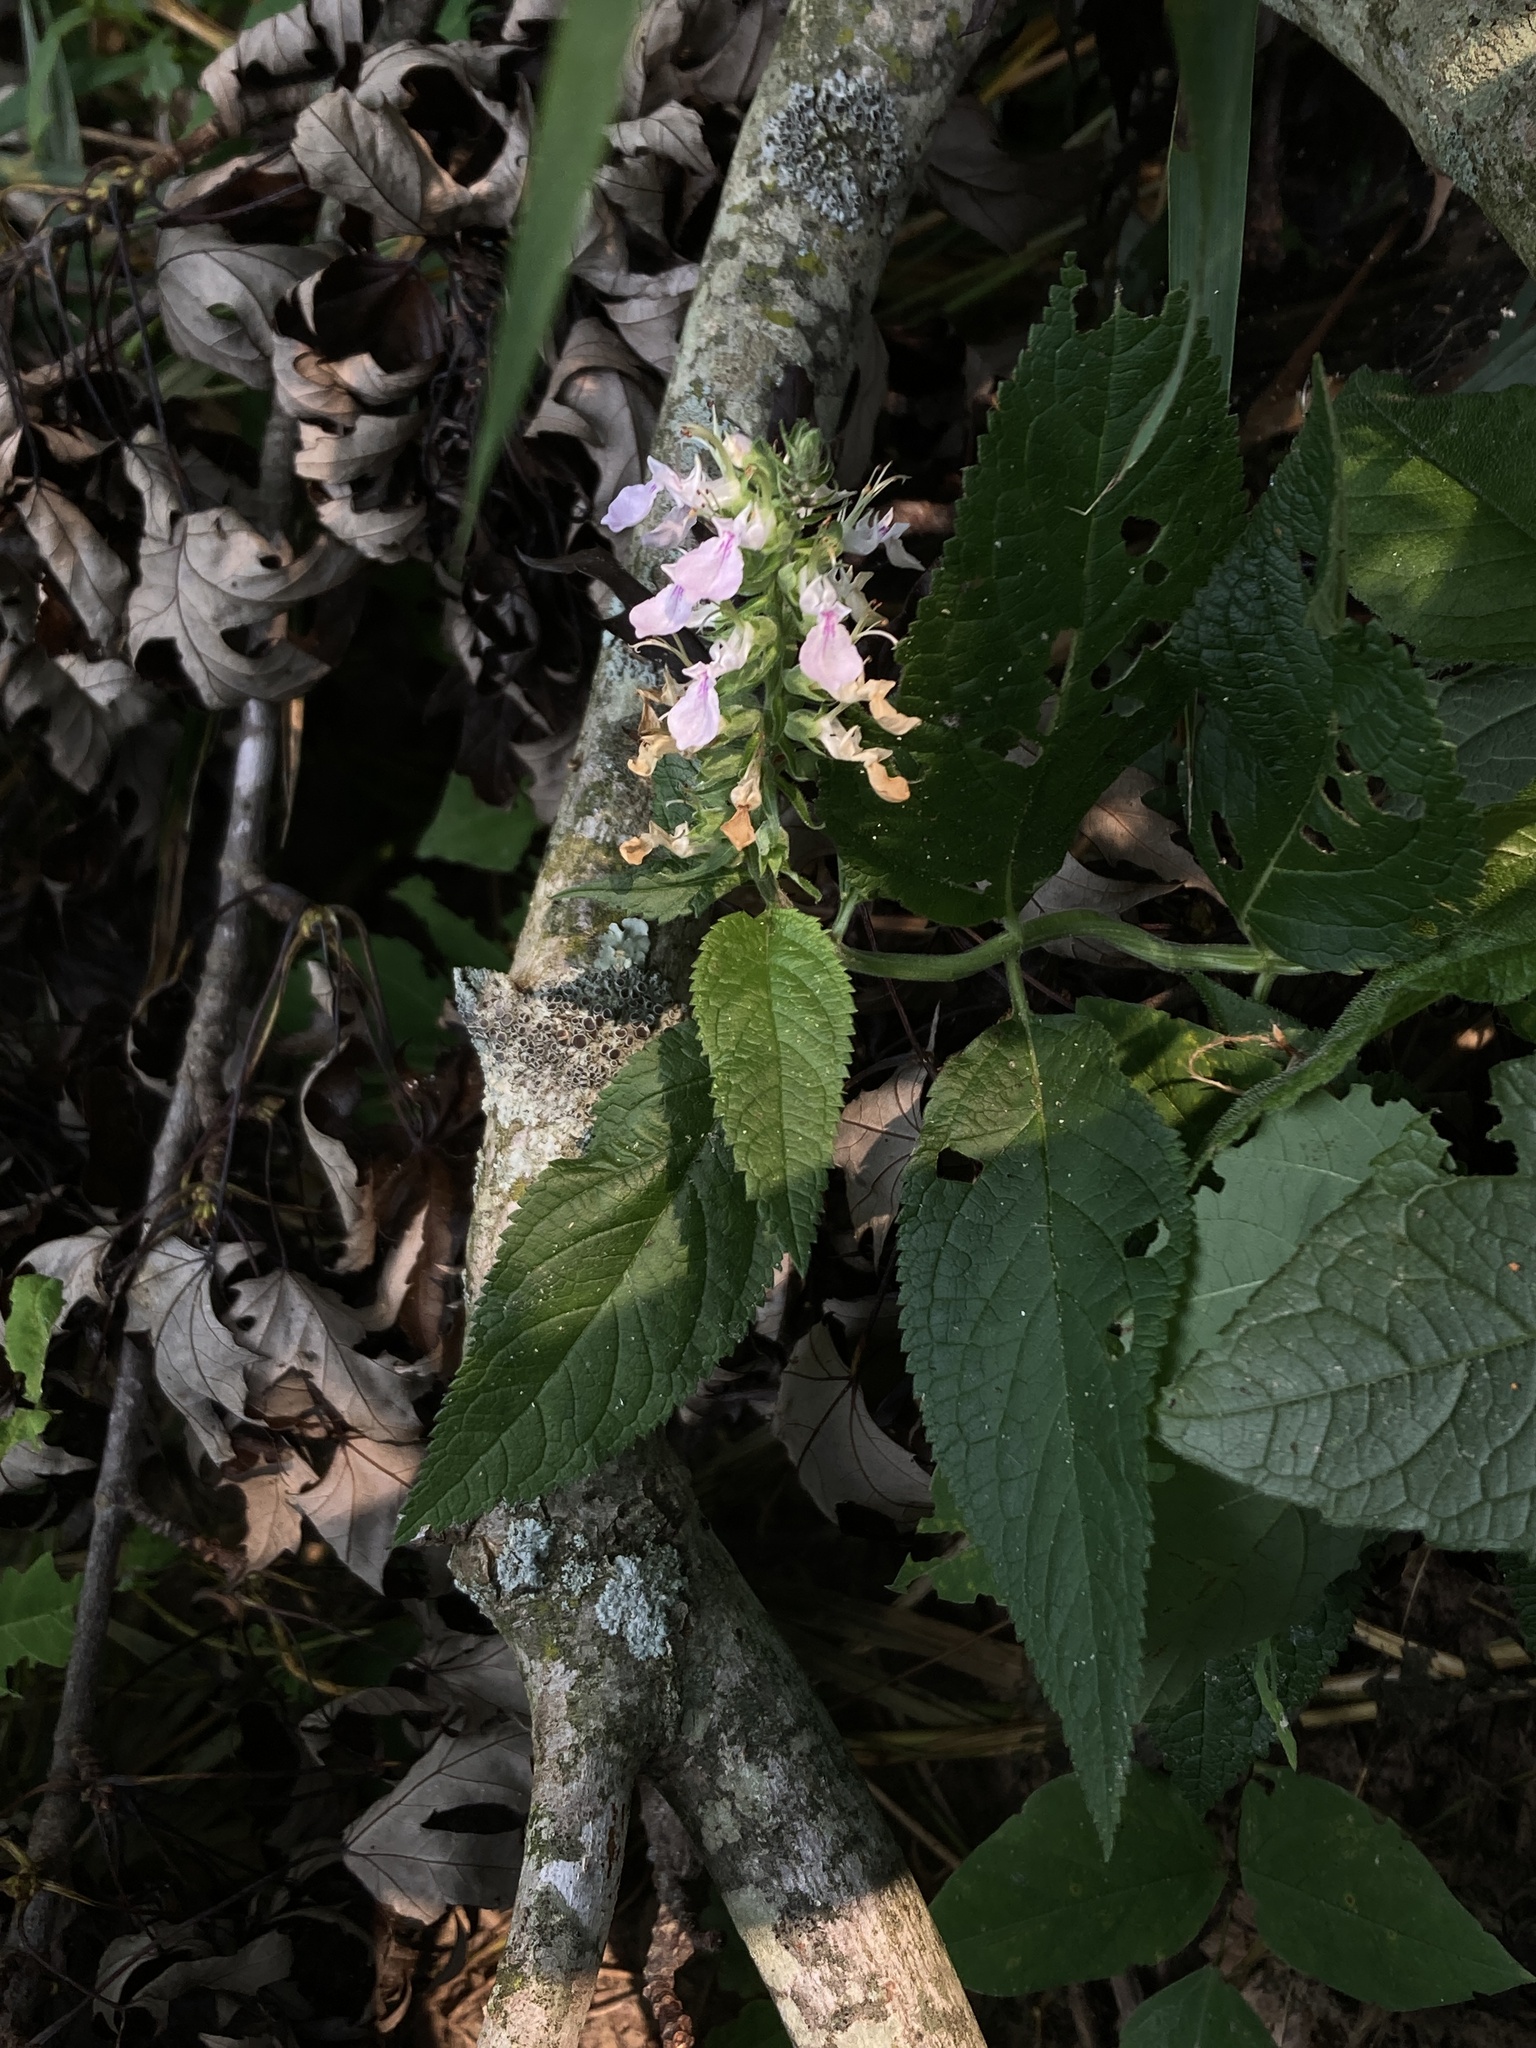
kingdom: Plantae
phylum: Tracheophyta
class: Magnoliopsida
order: Lamiales
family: Lamiaceae
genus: Teucrium
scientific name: Teucrium canadense
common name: American germander
